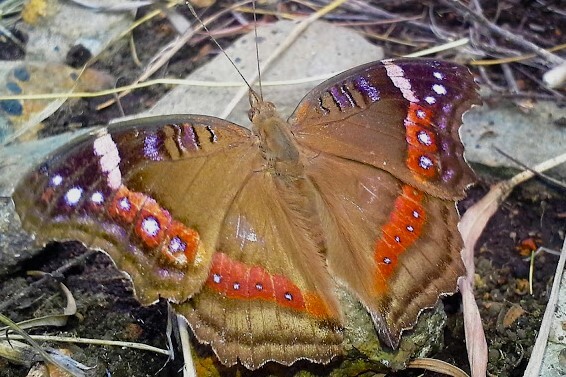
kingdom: Animalia
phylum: Arthropoda
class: Insecta
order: Lepidoptera
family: Nymphalidae
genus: Junonia
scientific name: Junonia archesia
